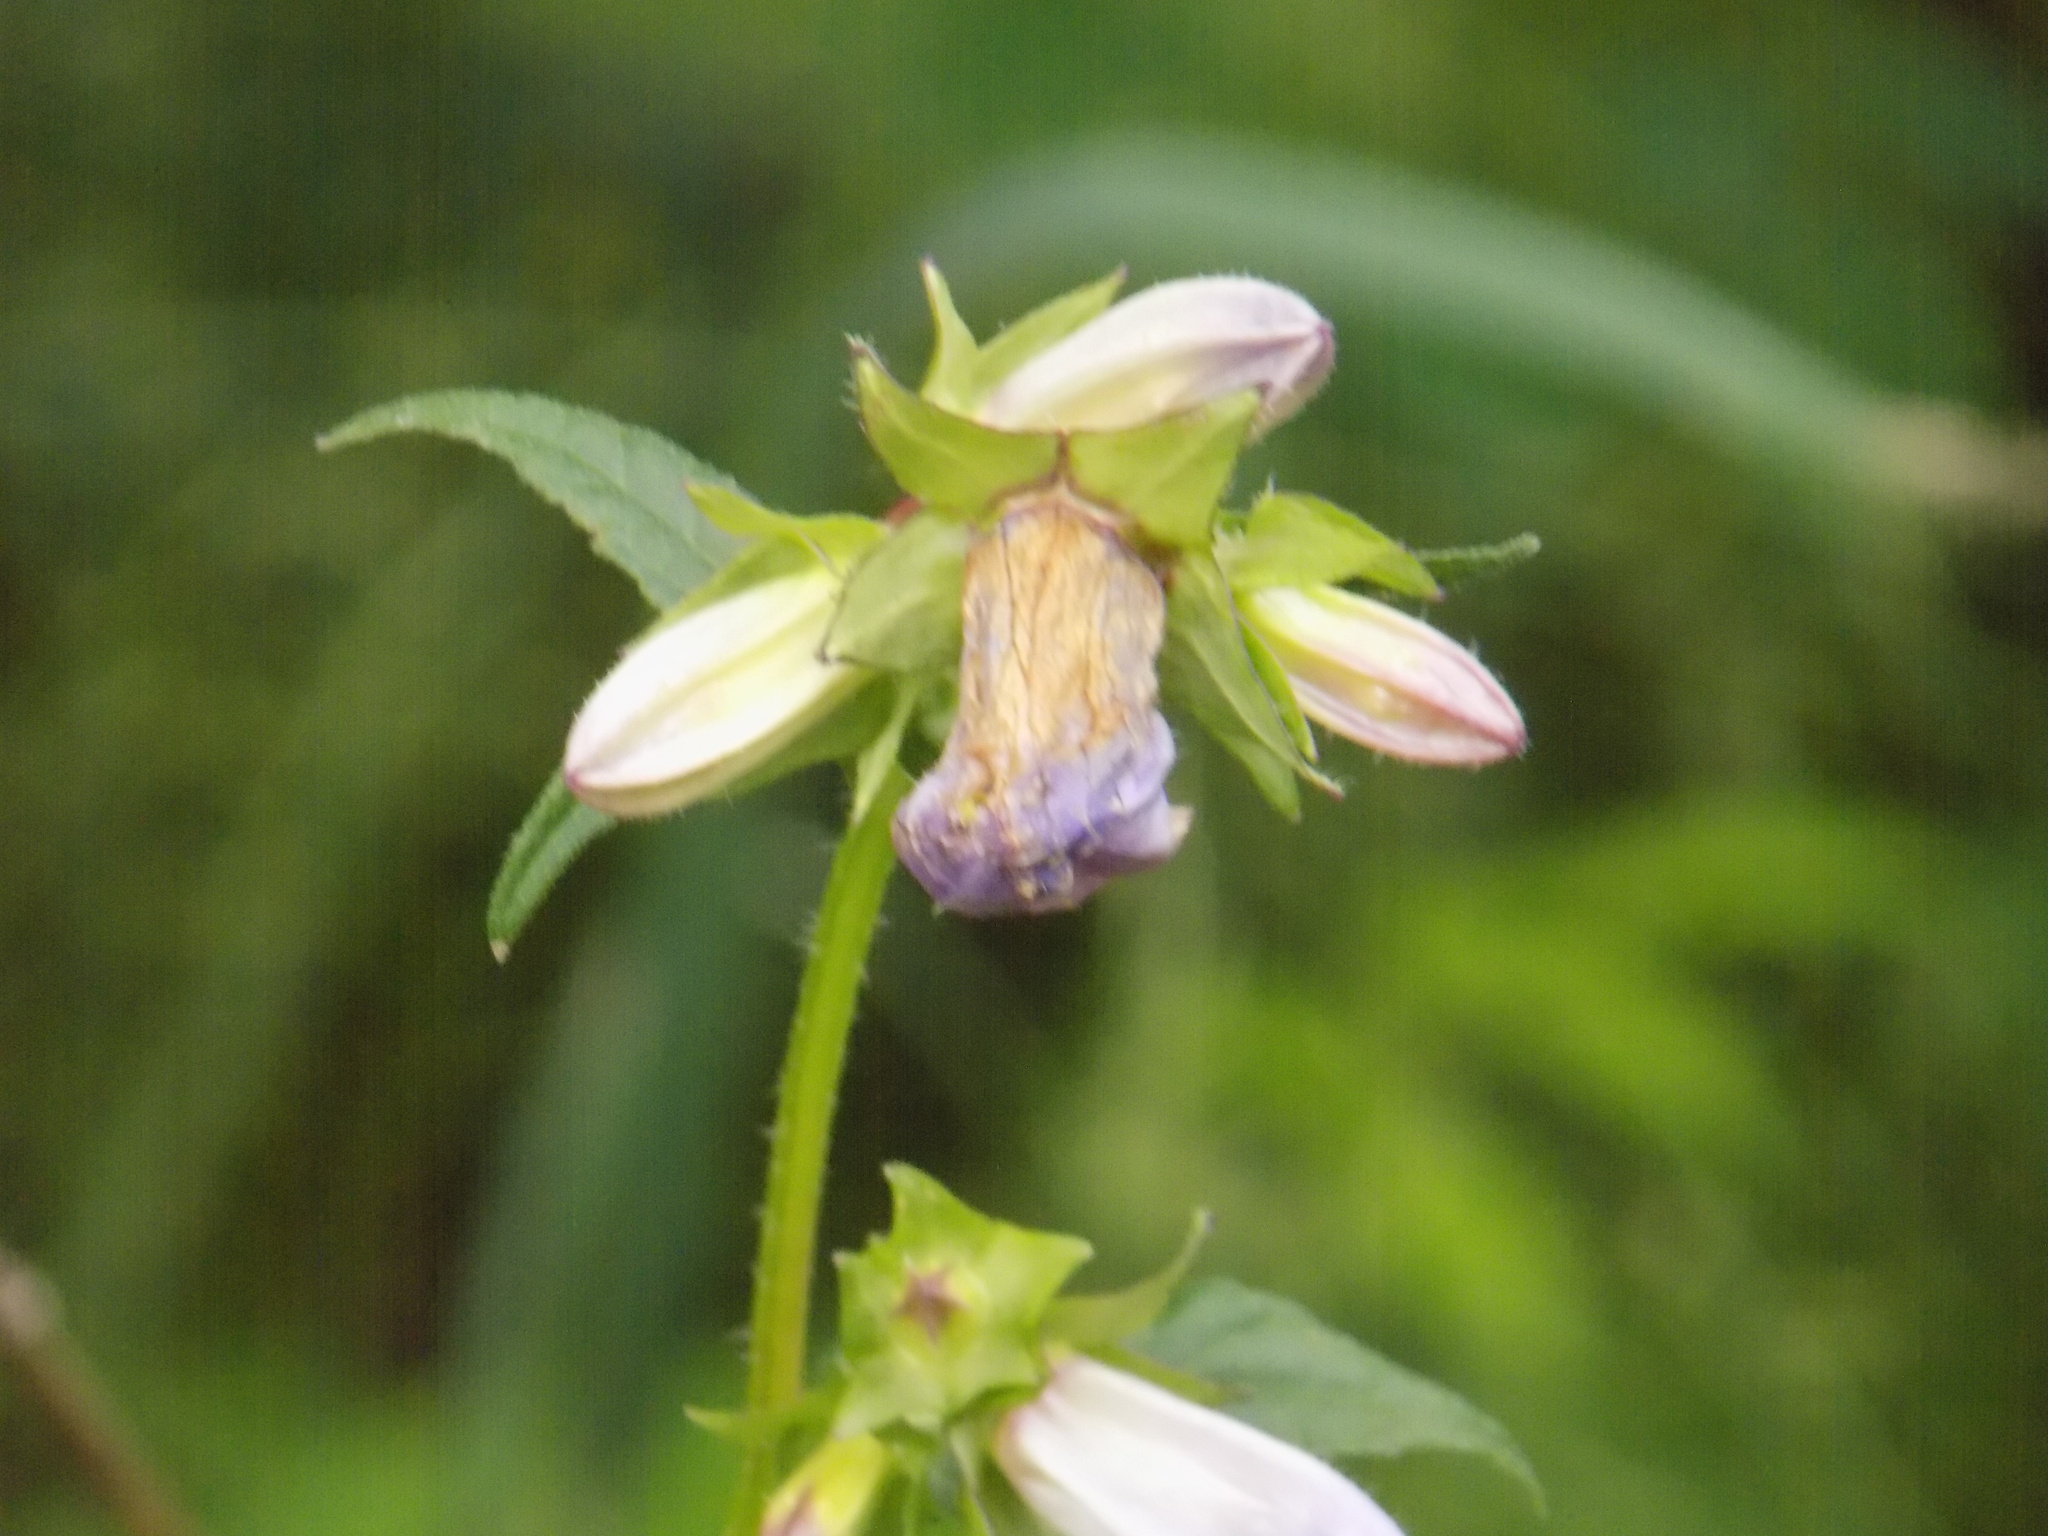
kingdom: Plantae
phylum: Tracheophyta
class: Magnoliopsida
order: Asterales
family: Campanulaceae
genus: Campanula
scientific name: Campanula trachelium
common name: Nettle-leaved bellflower
